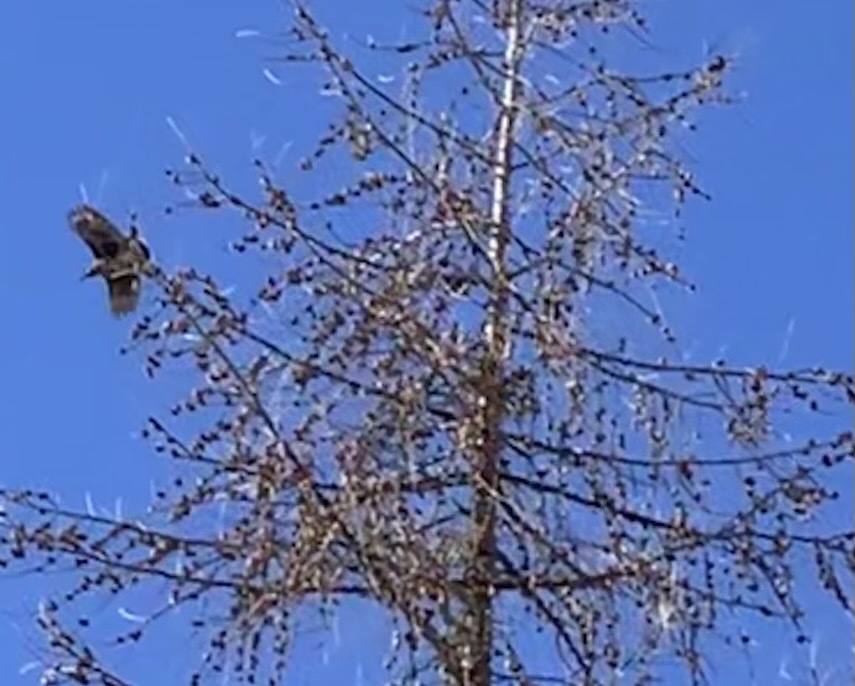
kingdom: Animalia
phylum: Chordata
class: Aves
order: Passeriformes
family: Corvidae
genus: Nucifraga
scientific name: Nucifraga caryocatactes
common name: Spotted nutcracker
